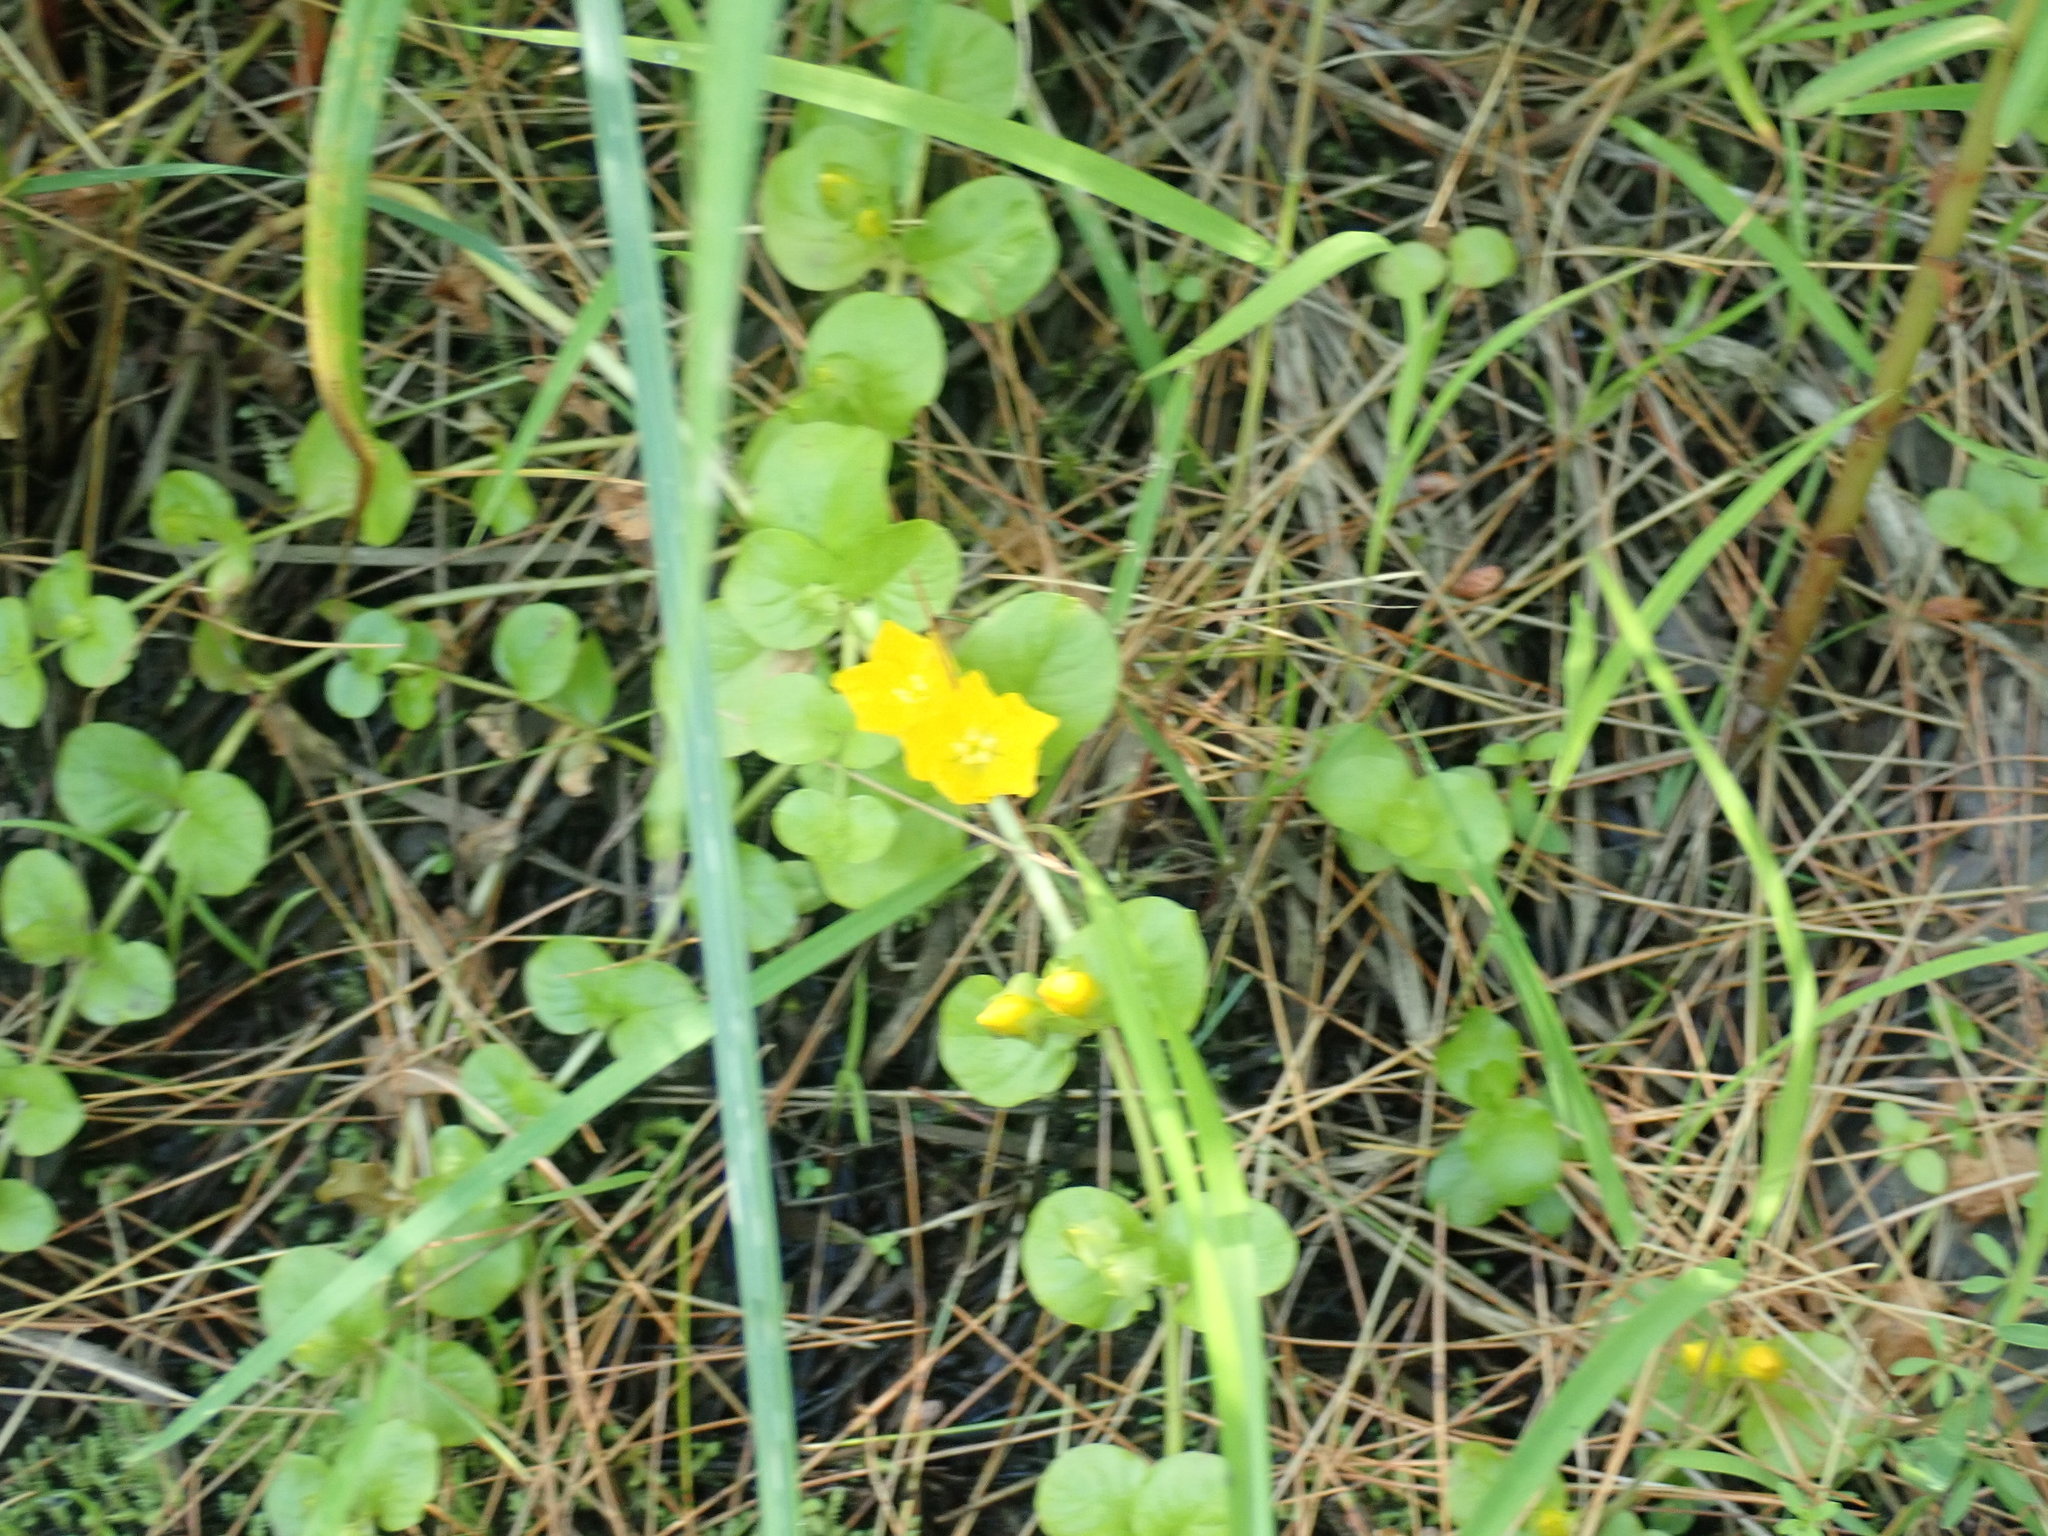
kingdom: Plantae
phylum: Tracheophyta
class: Magnoliopsida
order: Ericales
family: Primulaceae
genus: Lysimachia
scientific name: Lysimachia nummularia
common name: Moneywort
